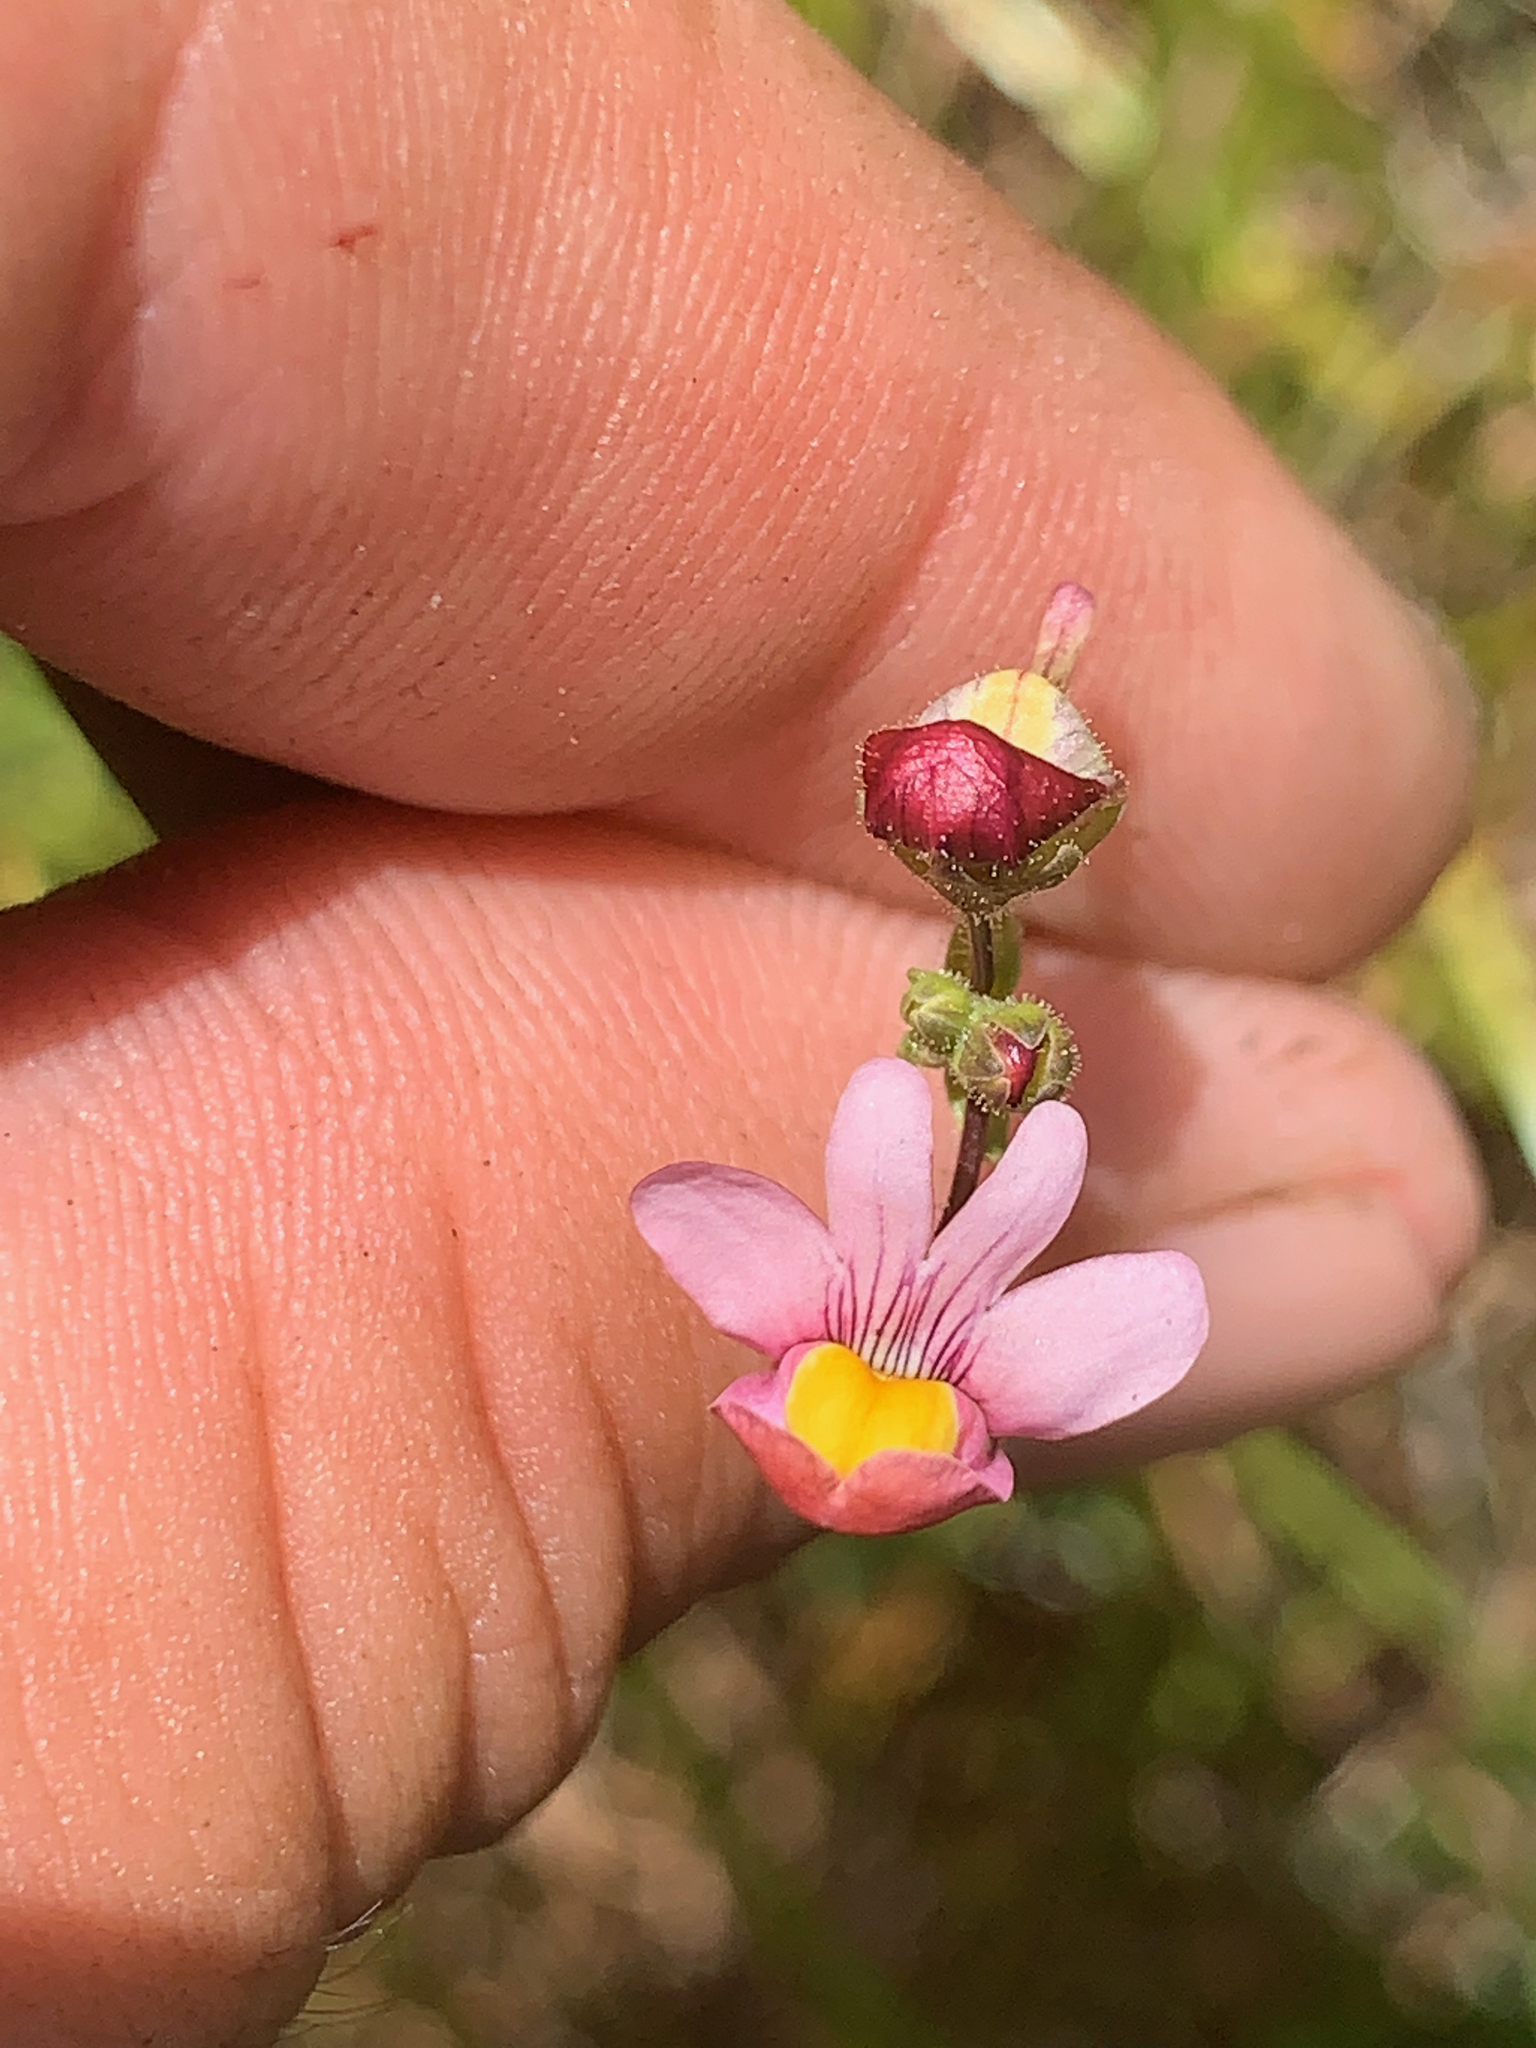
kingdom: Plantae
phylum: Tracheophyta
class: Magnoliopsida
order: Lamiales
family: Scrophulariaceae
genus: Nemesia
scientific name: Nemesia fruticans
